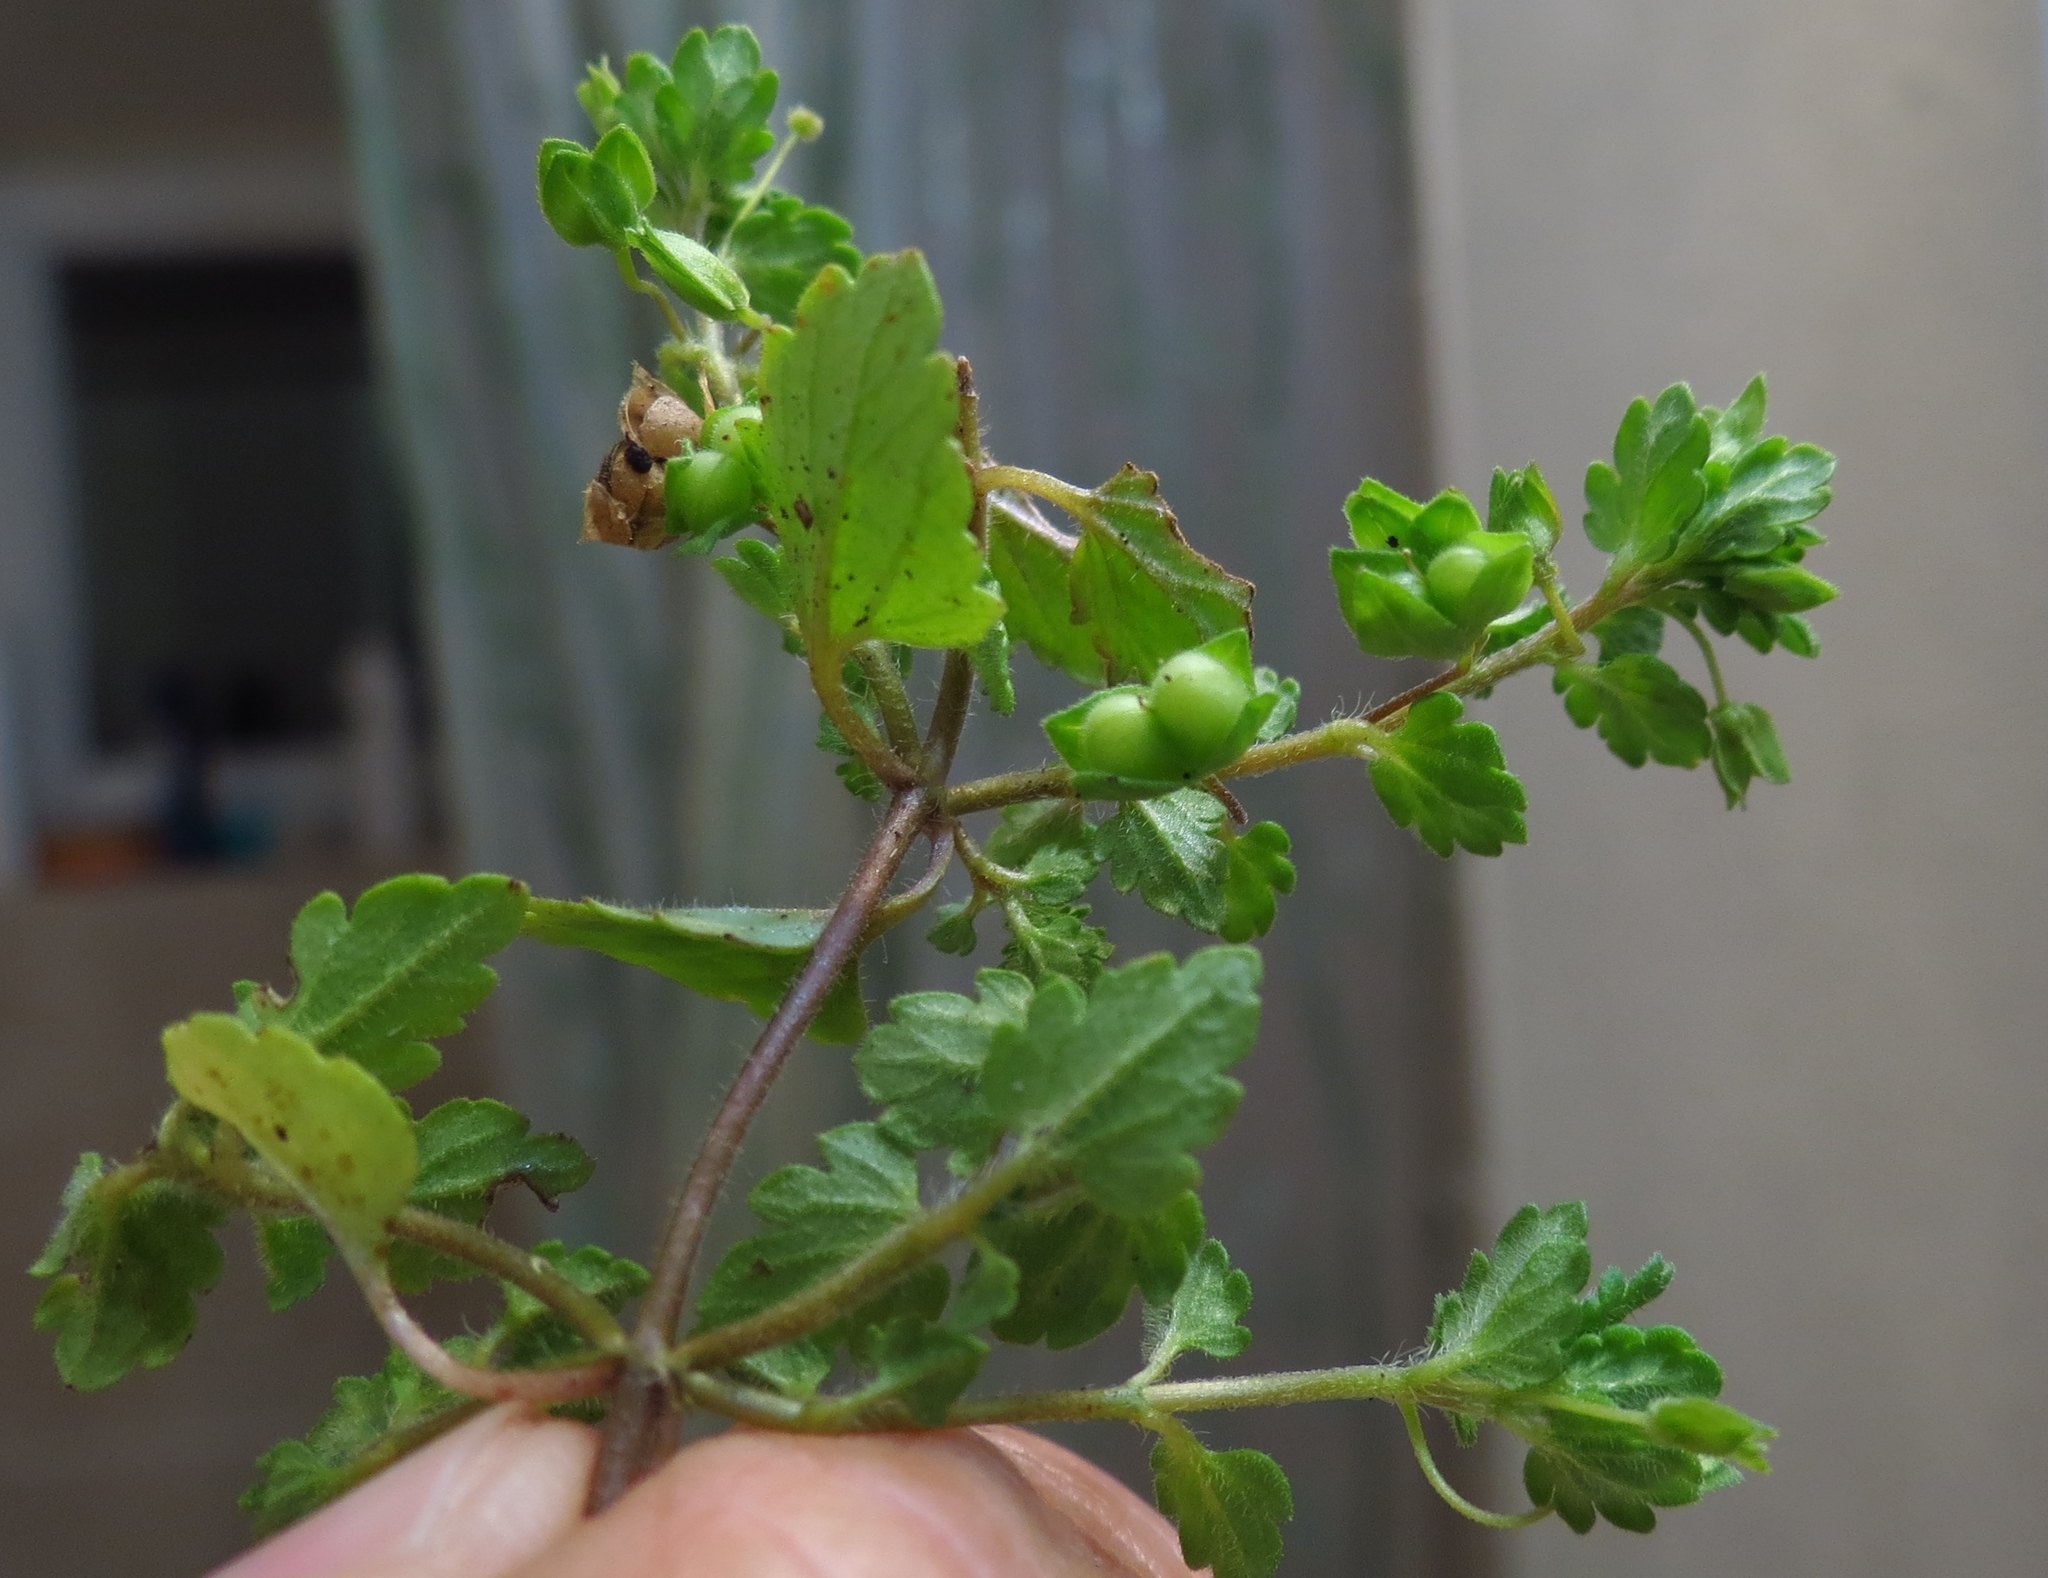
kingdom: Plantae
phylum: Tracheophyta
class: Magnoliopsida
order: Lamiales
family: Plantaginaceae
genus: Veronica
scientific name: Veronica polita
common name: Grey field-speedwell
